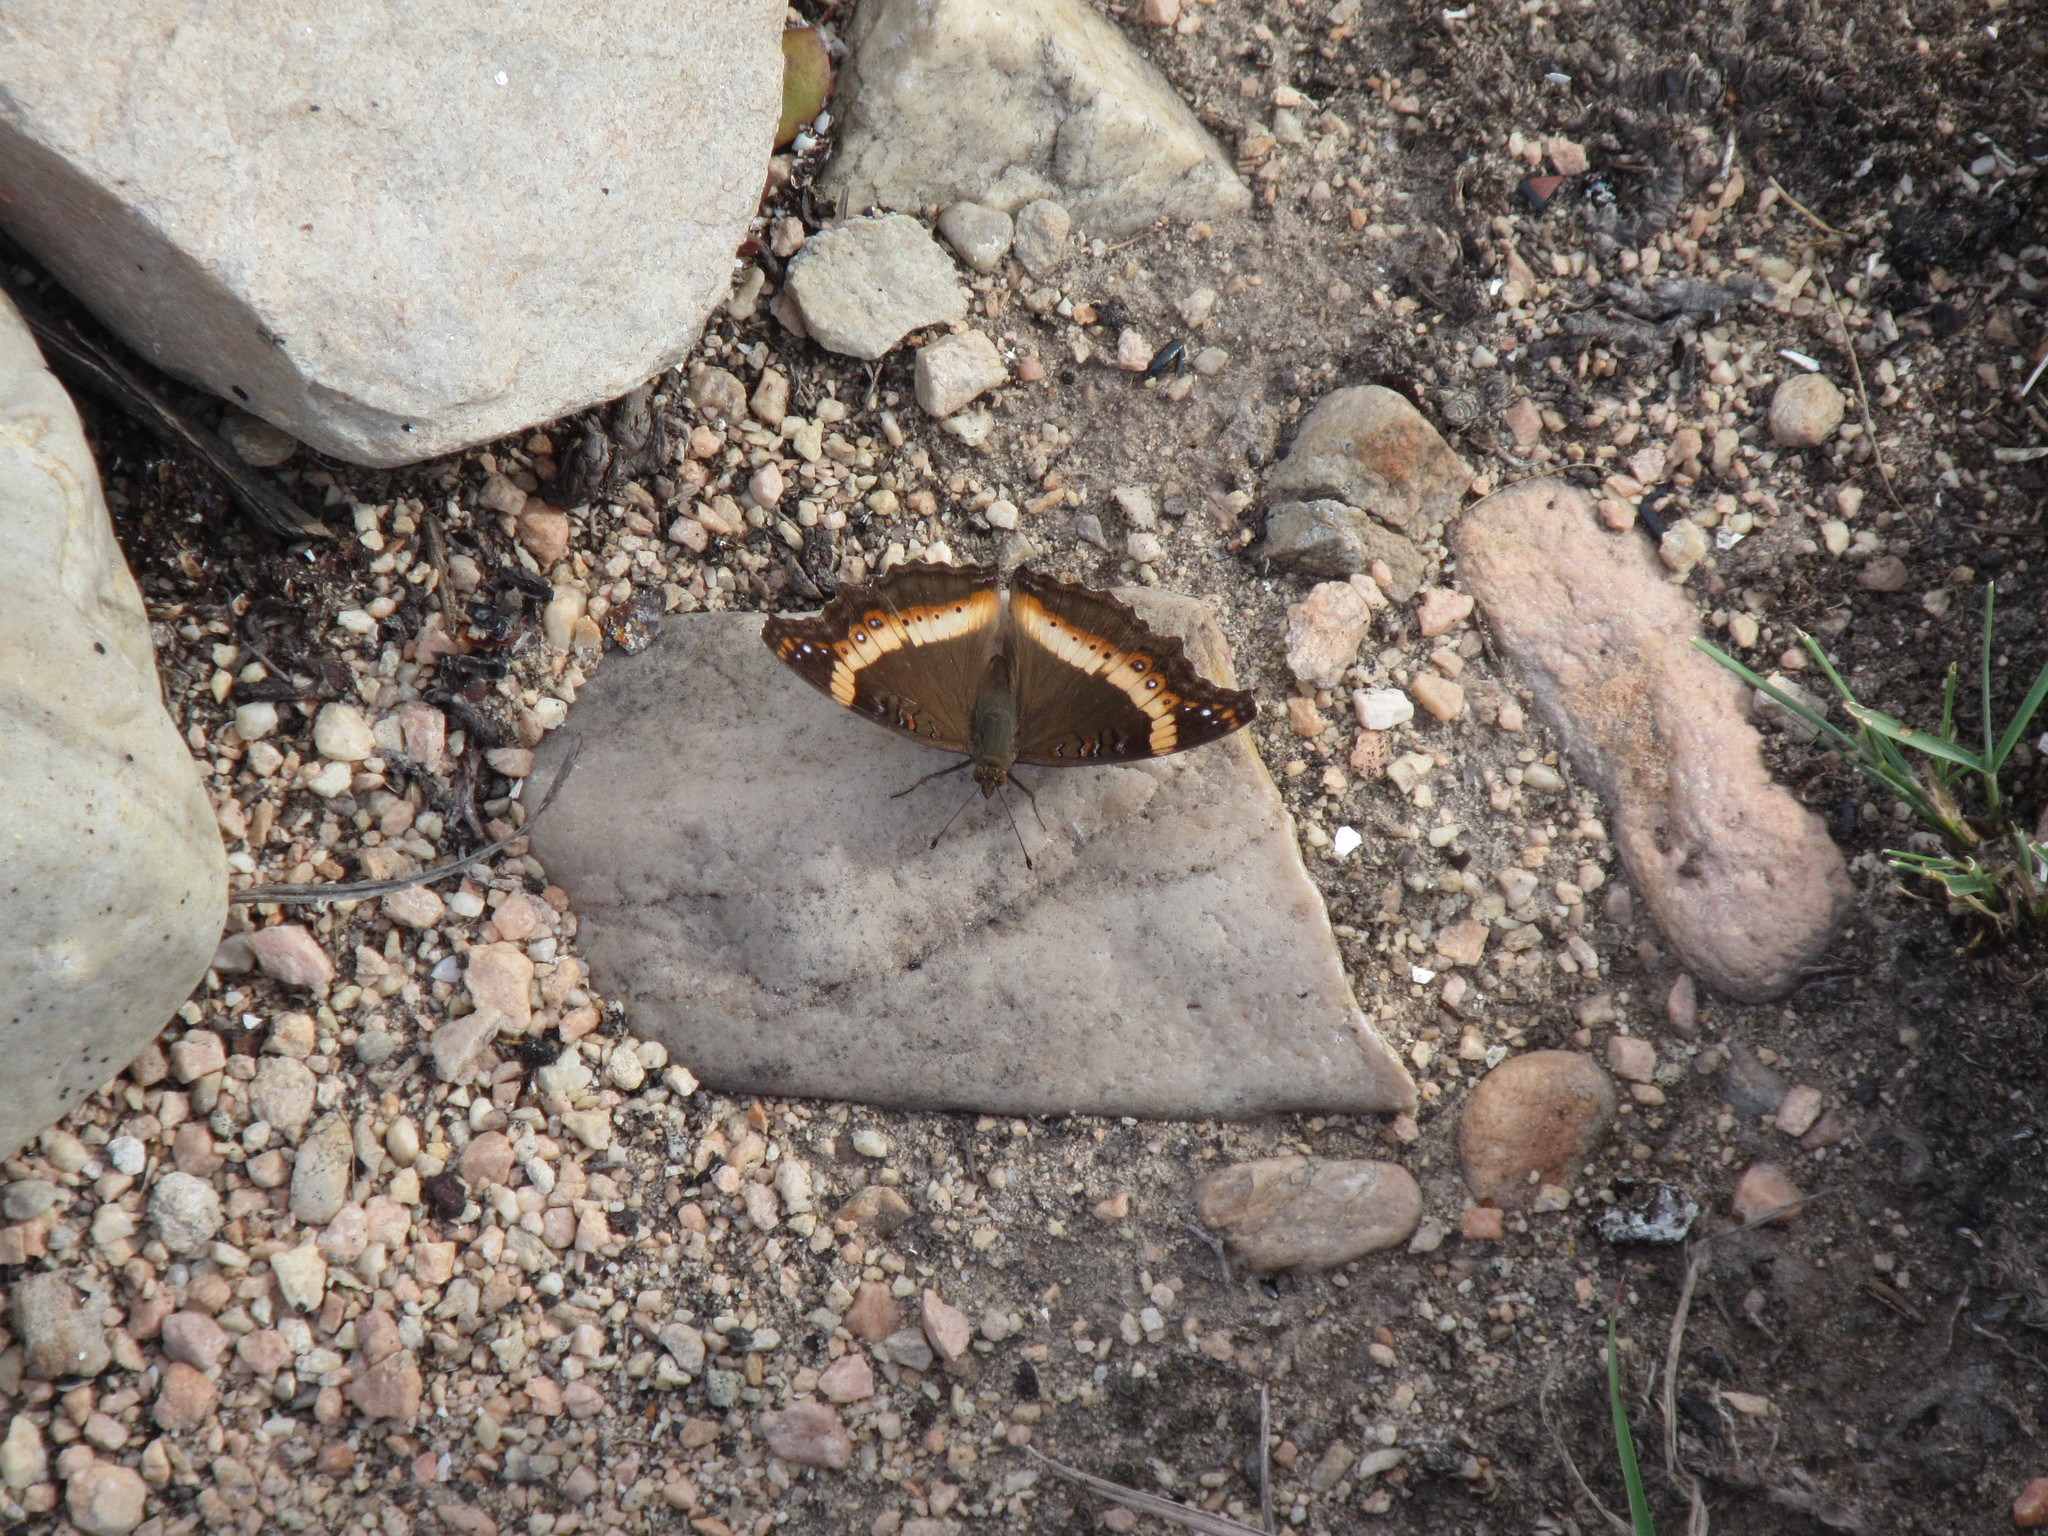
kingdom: Animalia
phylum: Arthropoda
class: Insecta
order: Lepidoptera
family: Nymphalidae
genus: Junonia
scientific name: Junonia archesia
